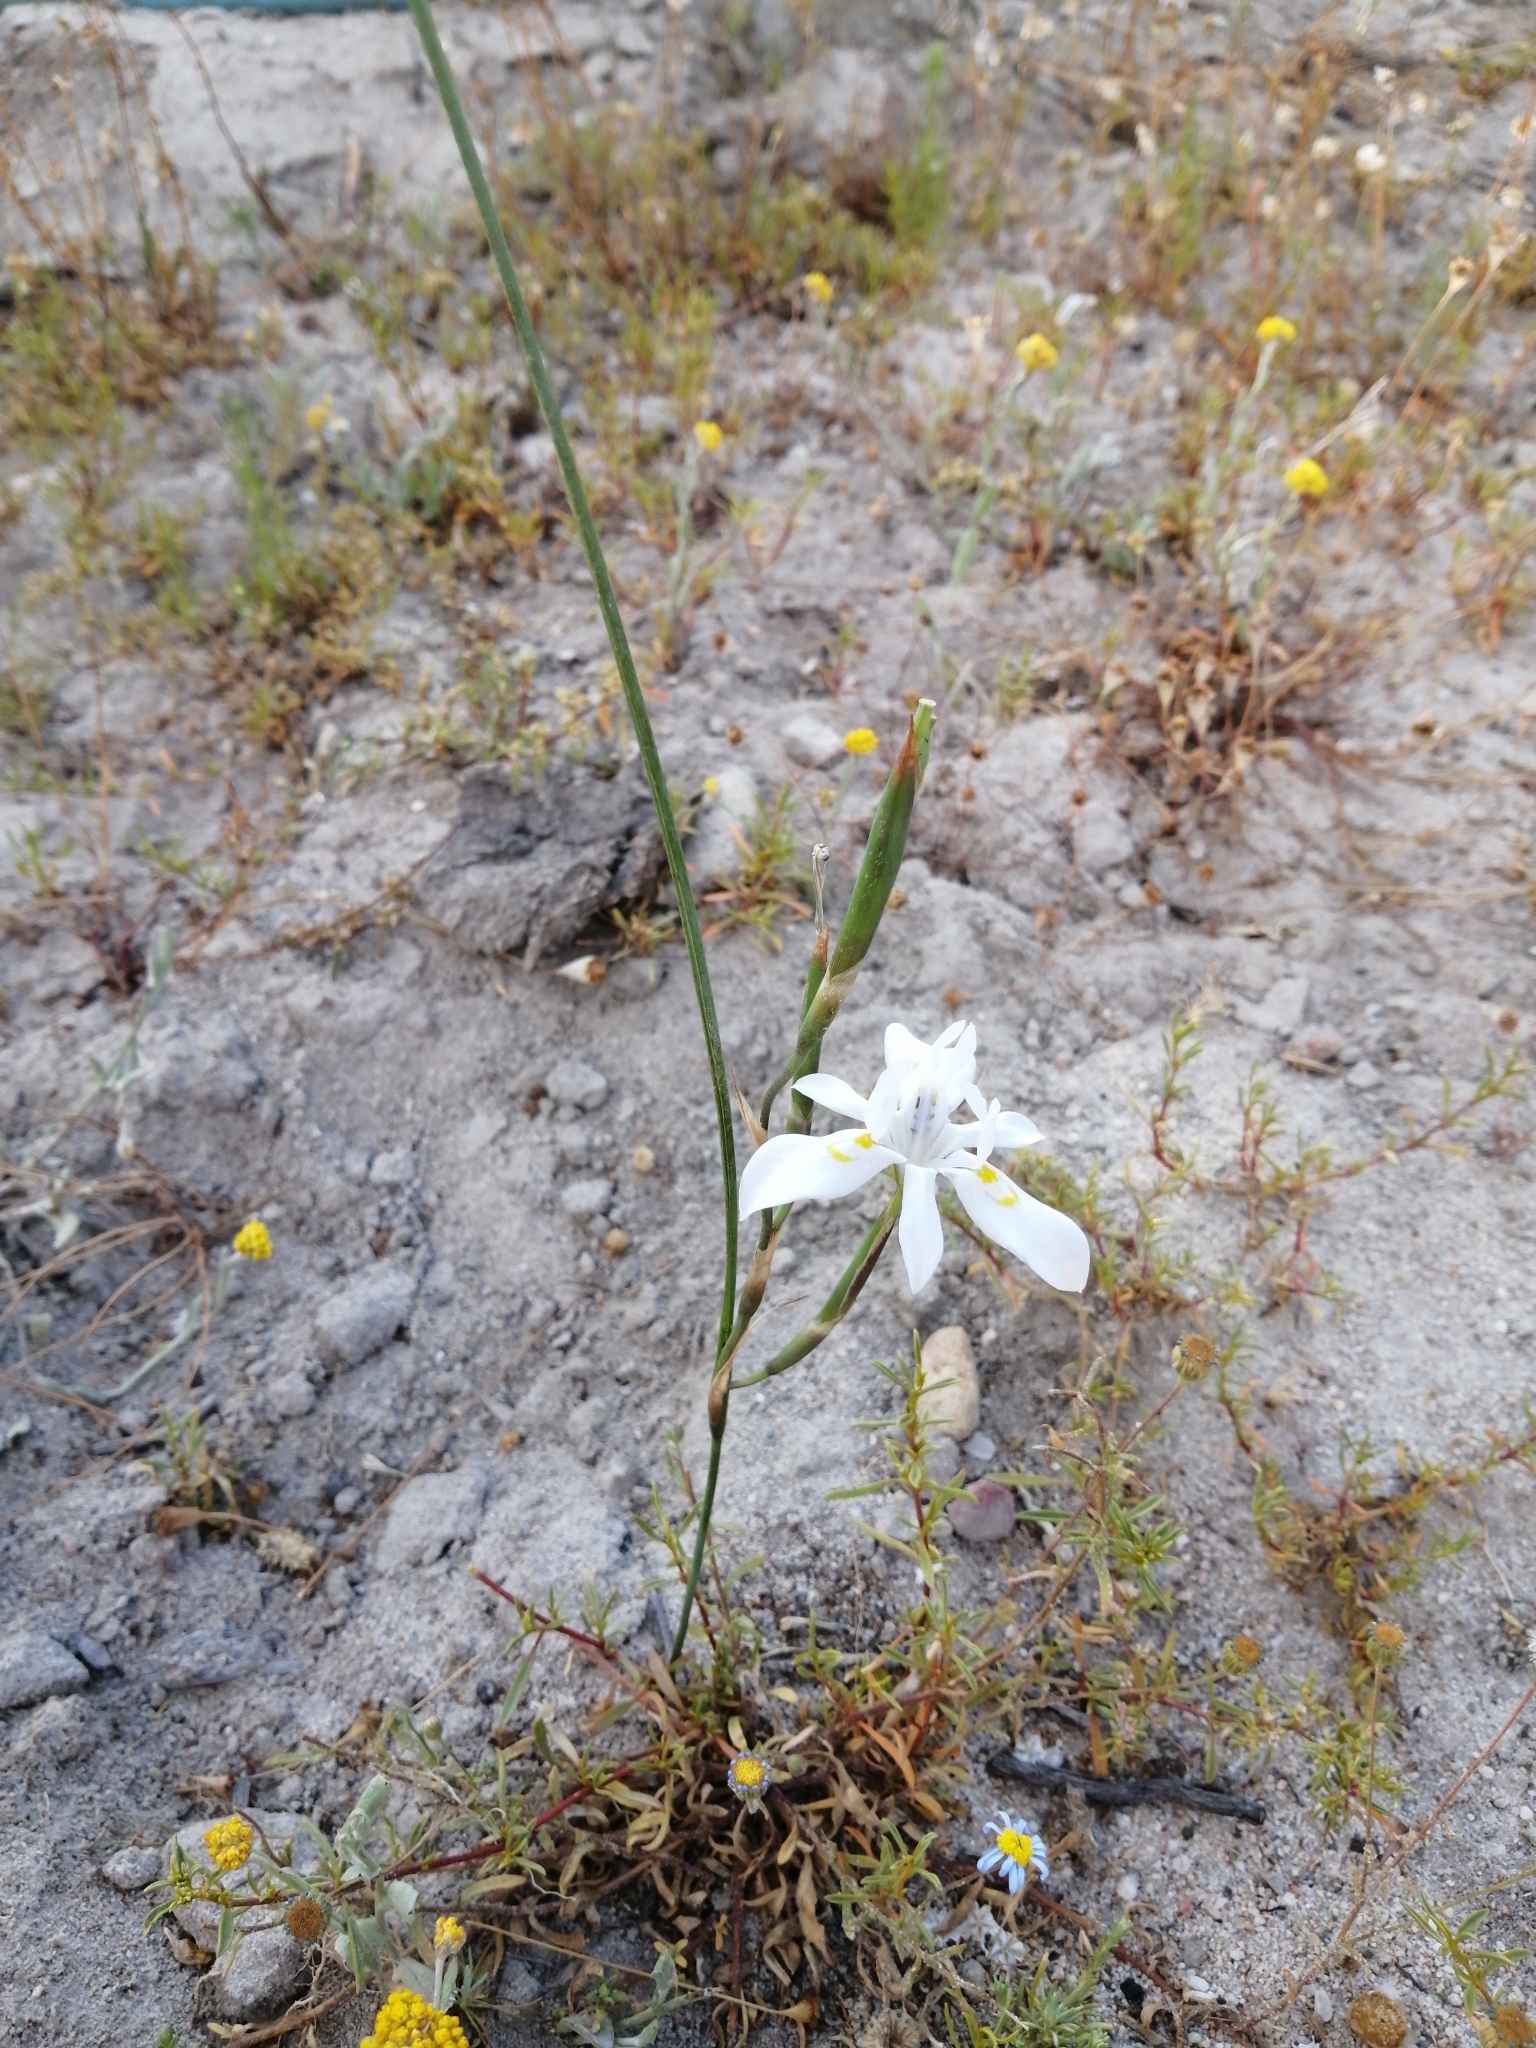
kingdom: Plantae
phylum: Tracheophyta
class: Liliopsida
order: Asparagales
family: Iridaceae
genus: Moraea
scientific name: Moraea fugax
